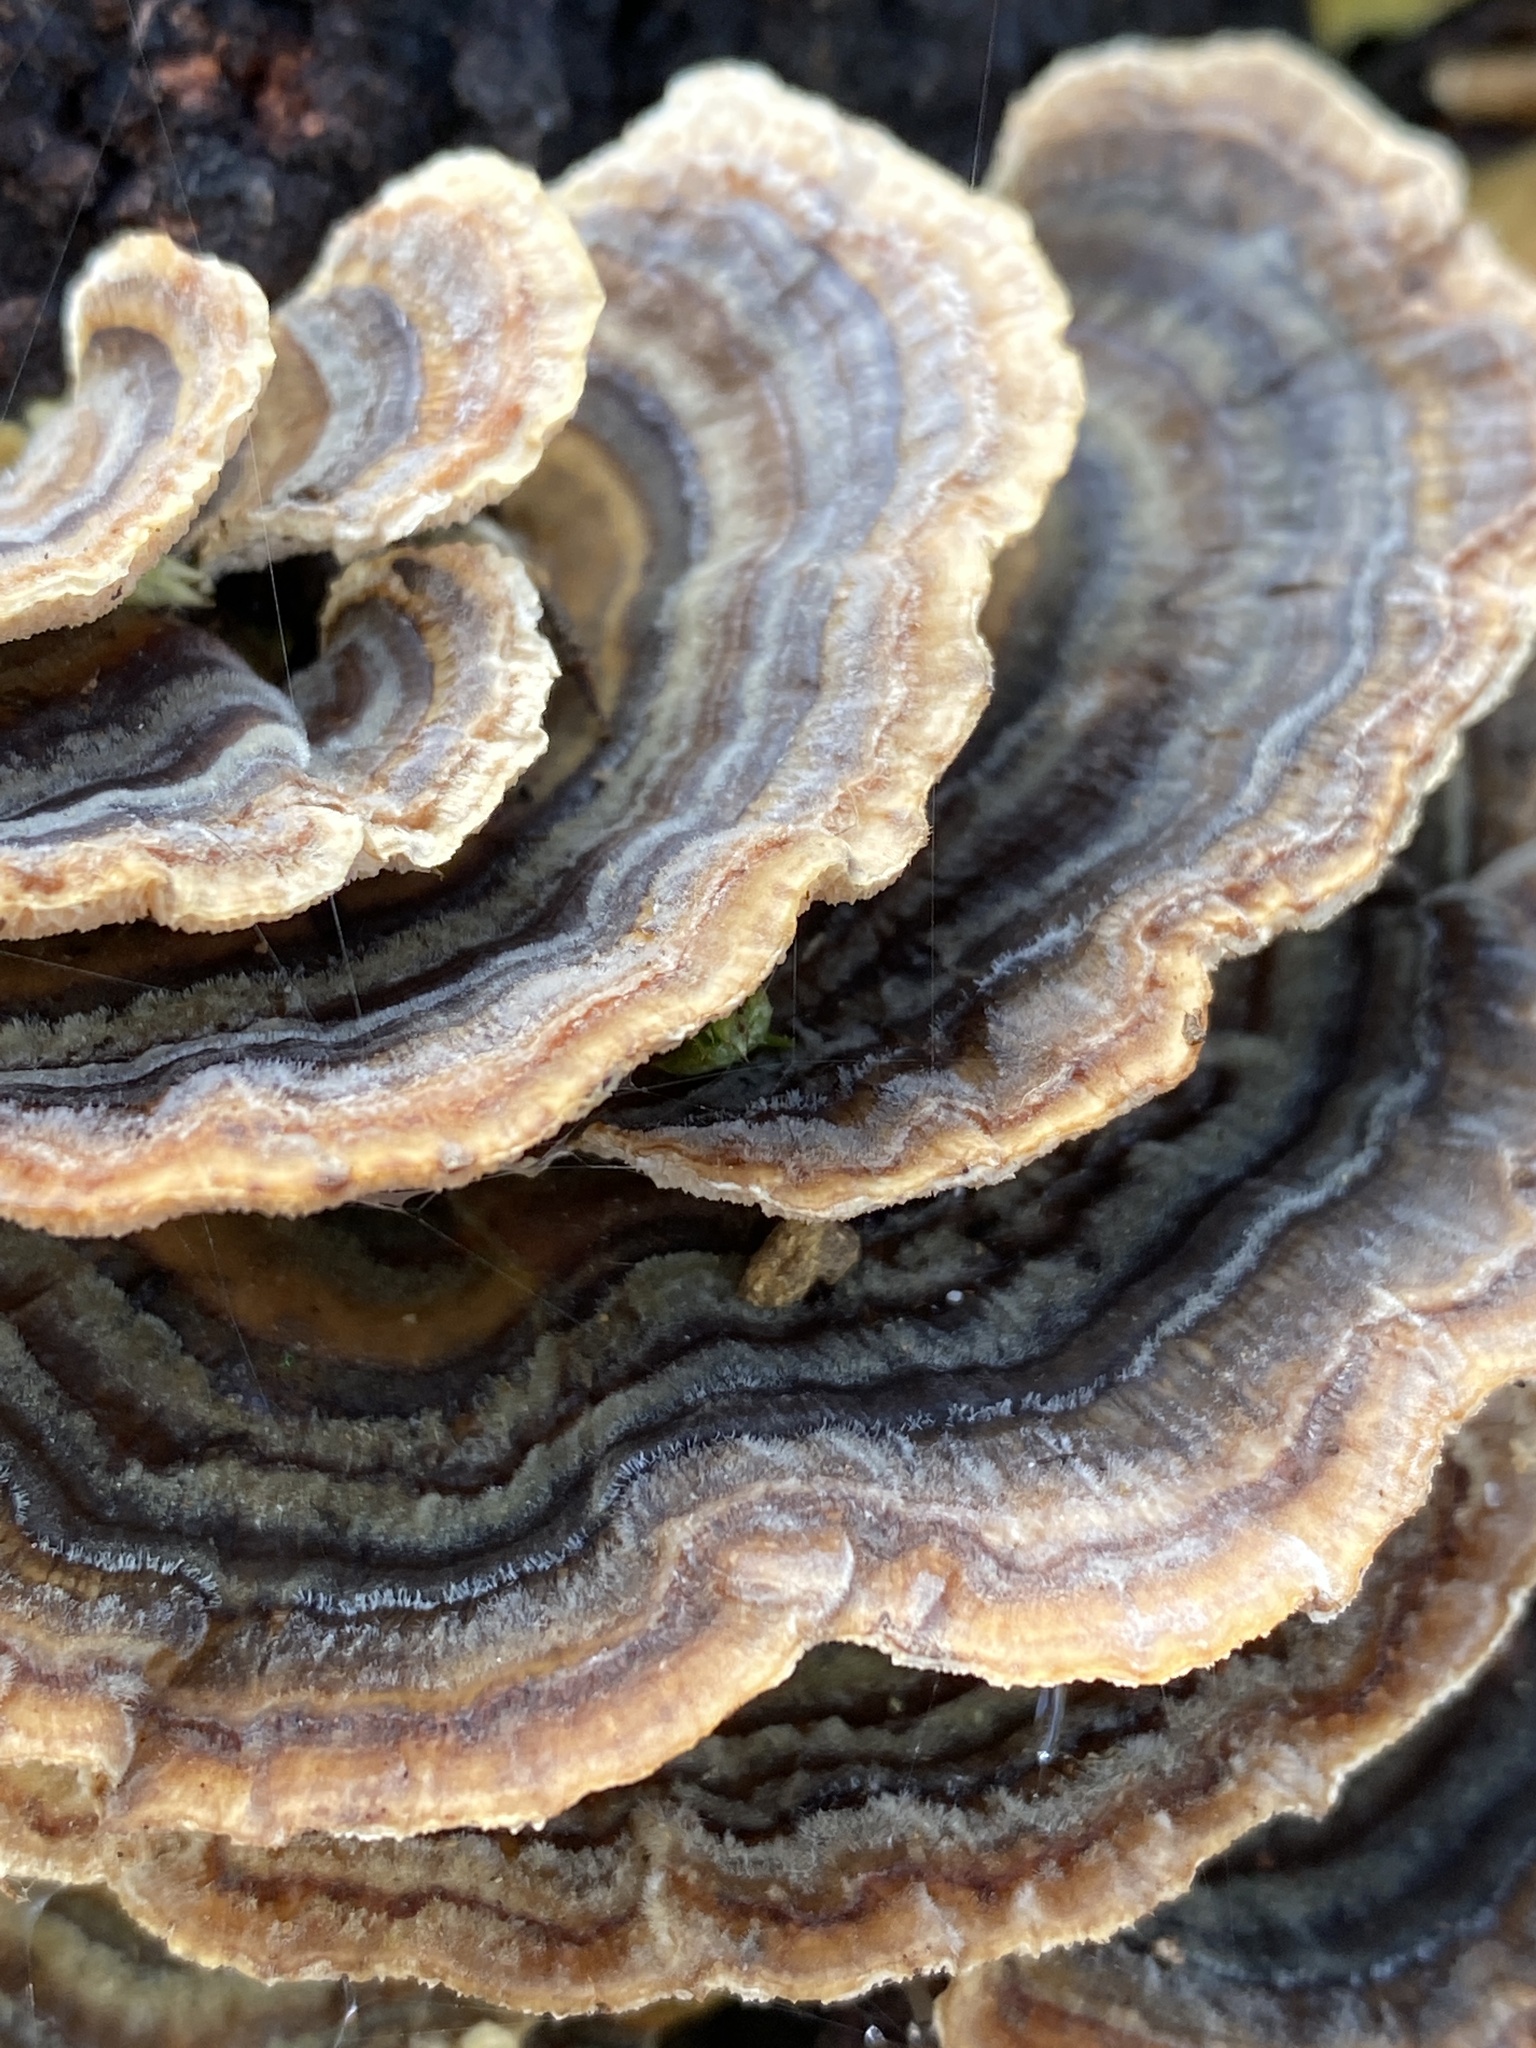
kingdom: Fungi
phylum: Basidiomycota
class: Agaricomycetes
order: Polyporales
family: Polyporaceae
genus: Trametes
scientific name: Trametes versicolor
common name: Turkeytail
